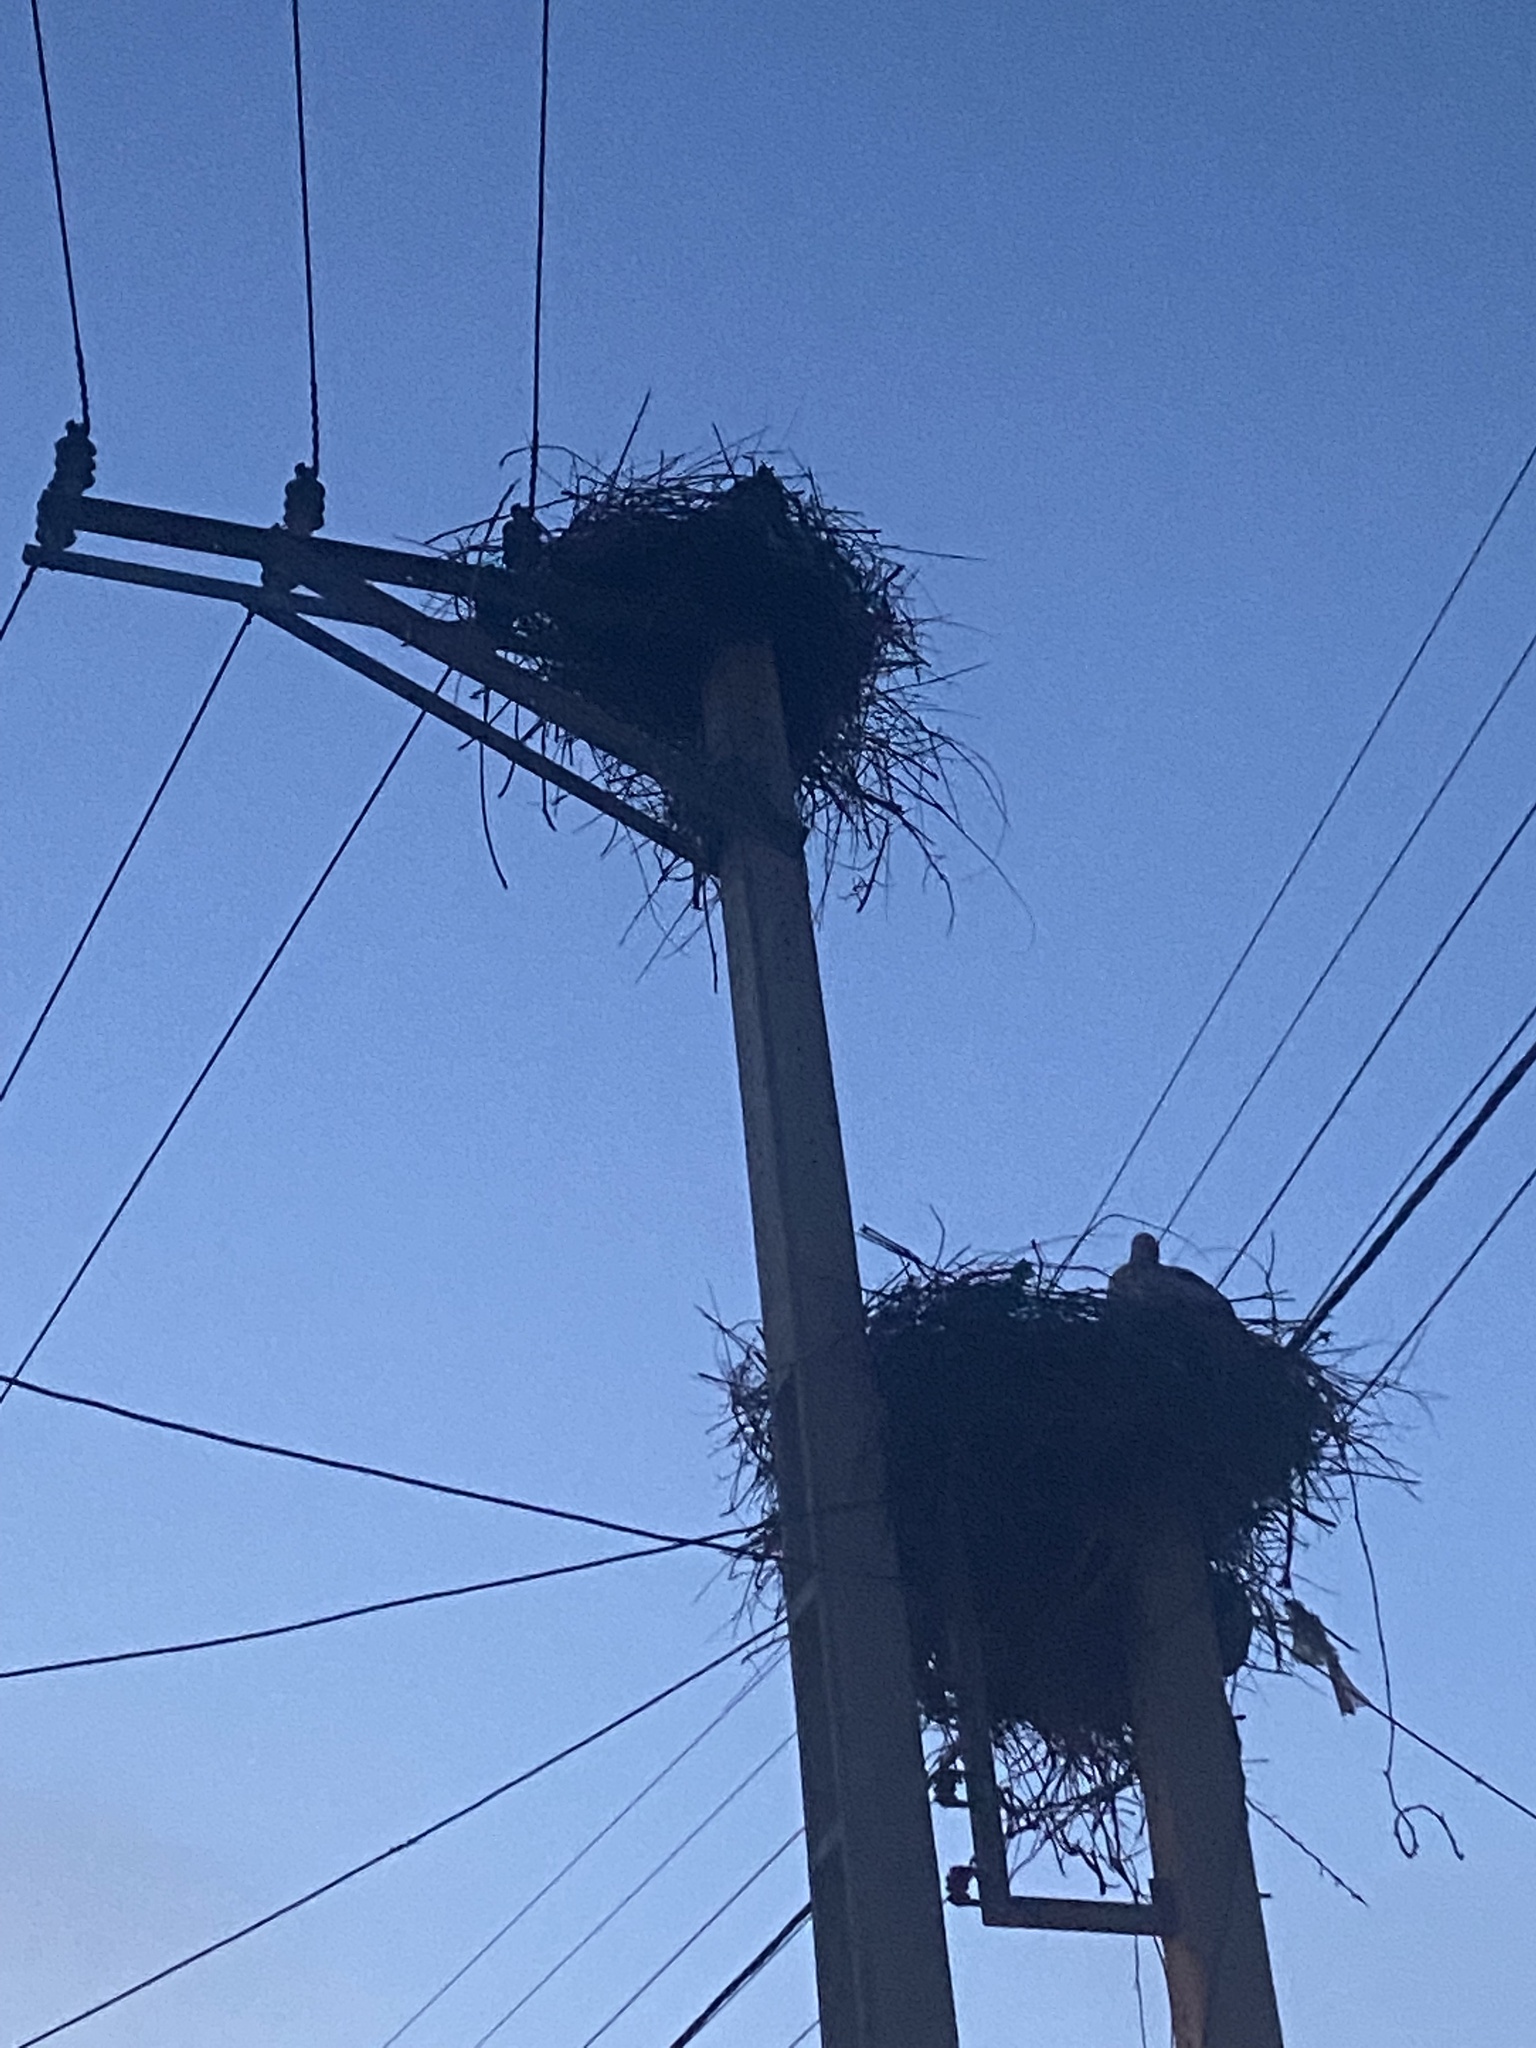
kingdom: Animalia
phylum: Chordata
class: Aves
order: Ciconiiformes
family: Ciconiidae
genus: Ciconia
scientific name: Ciconia ciconia
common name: White stork
